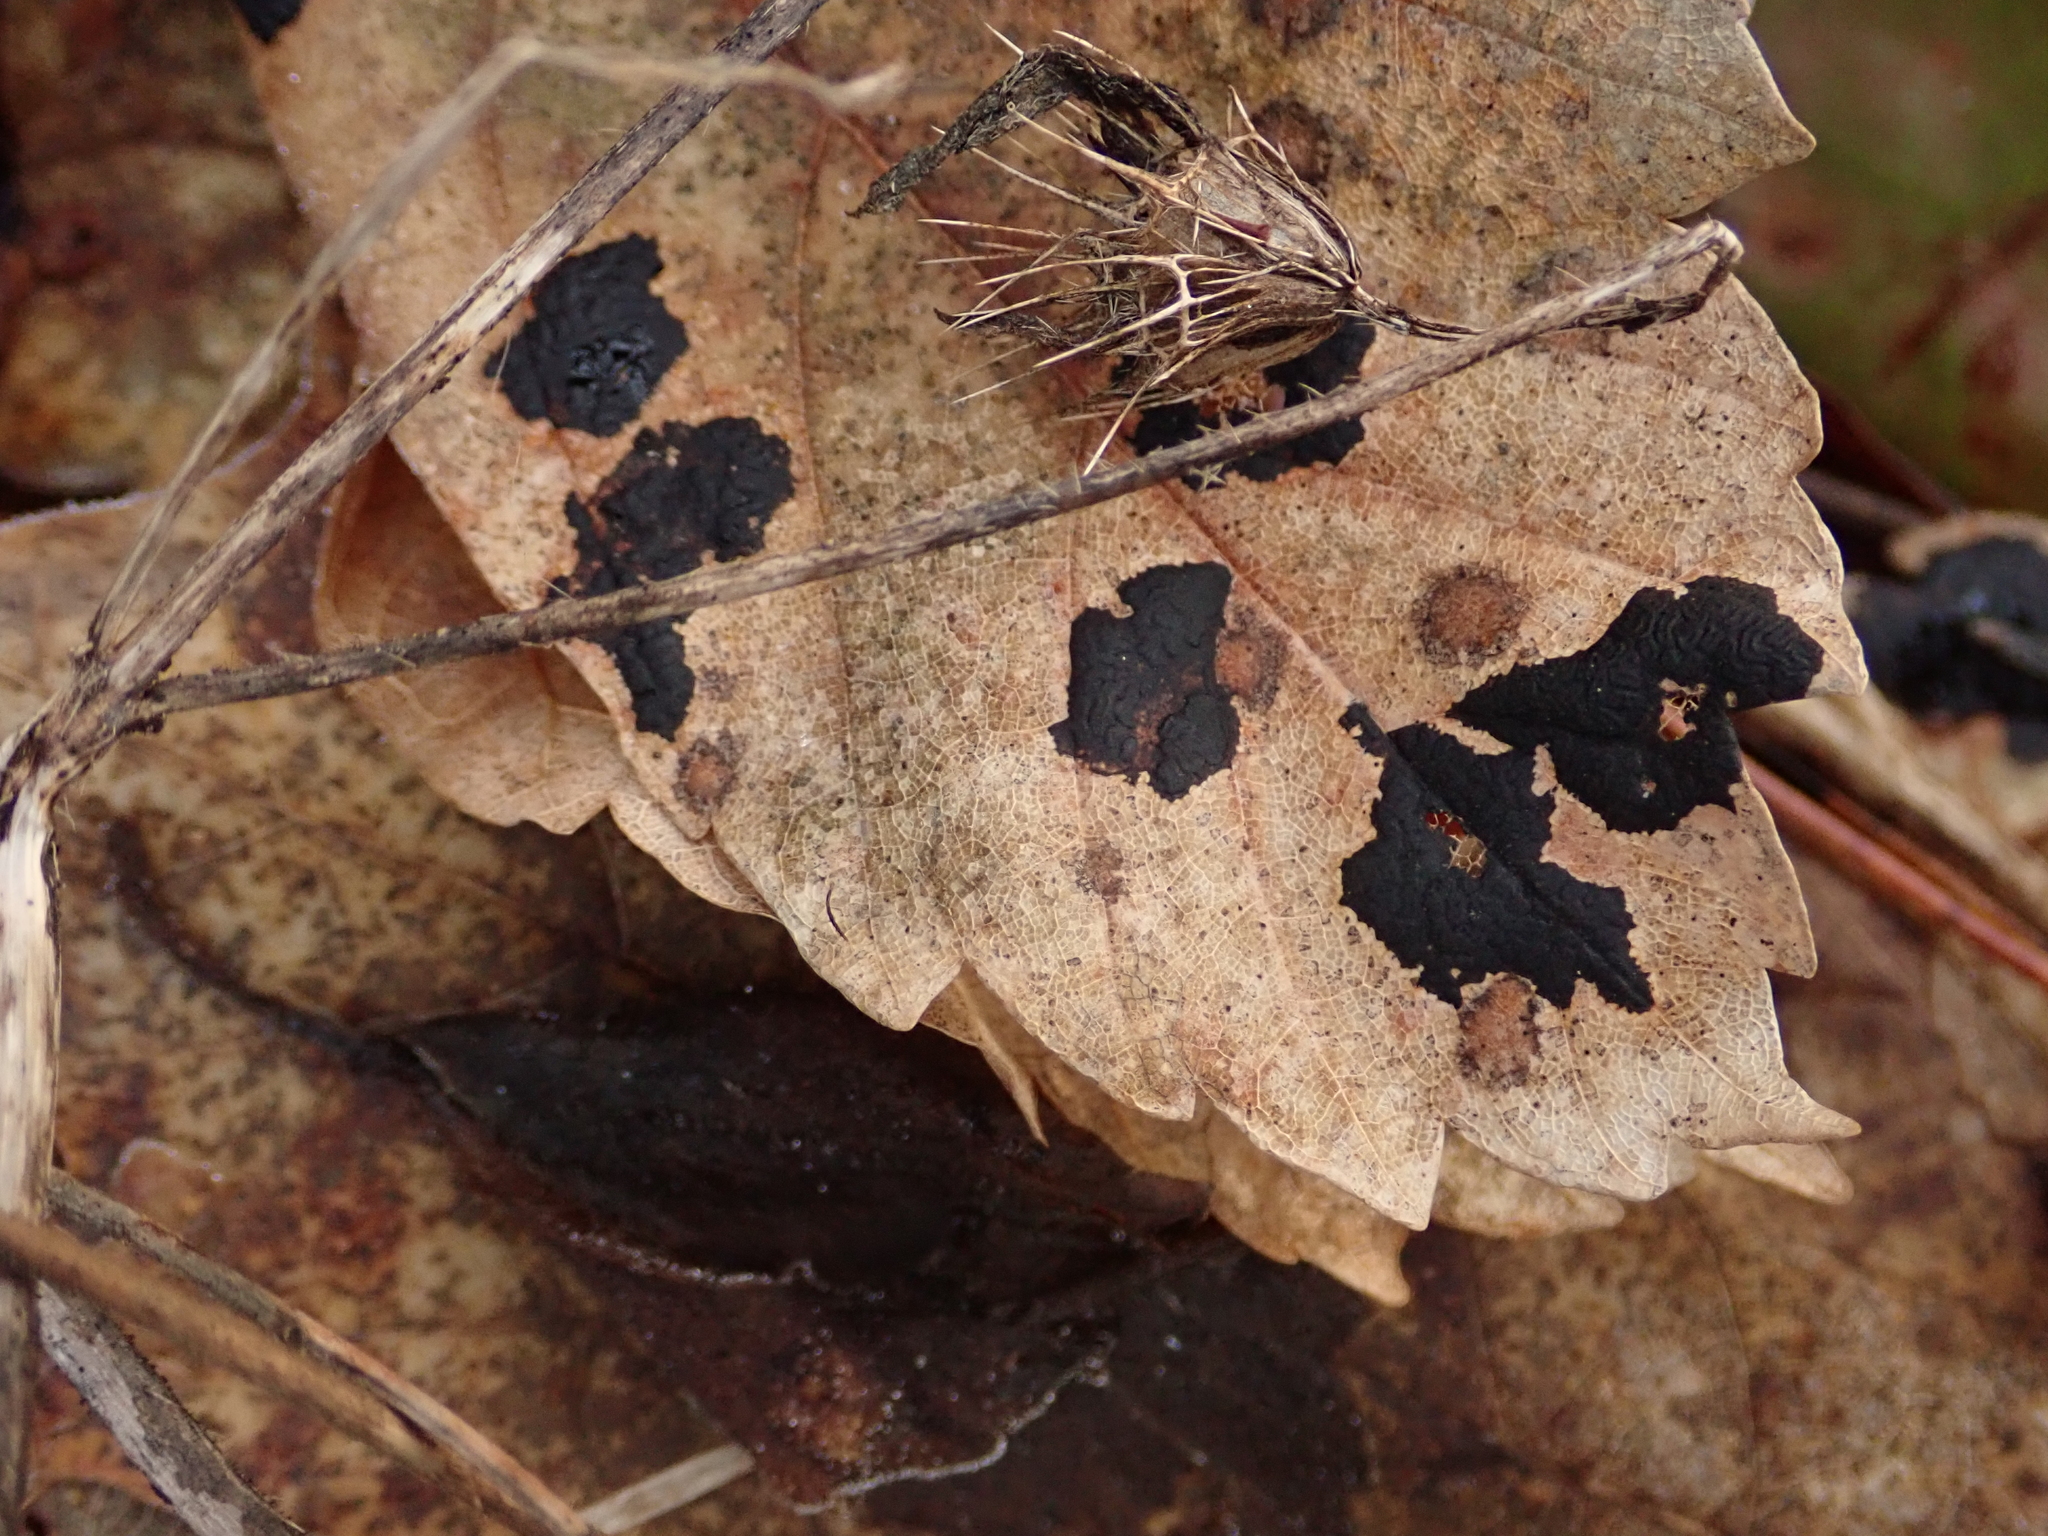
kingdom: Fungi
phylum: Ascomycota
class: Leotiomycetes
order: Rhytismatales
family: Rhytismataceae
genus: Rhytisma
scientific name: Rhytisma acerinum
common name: European tar spot
